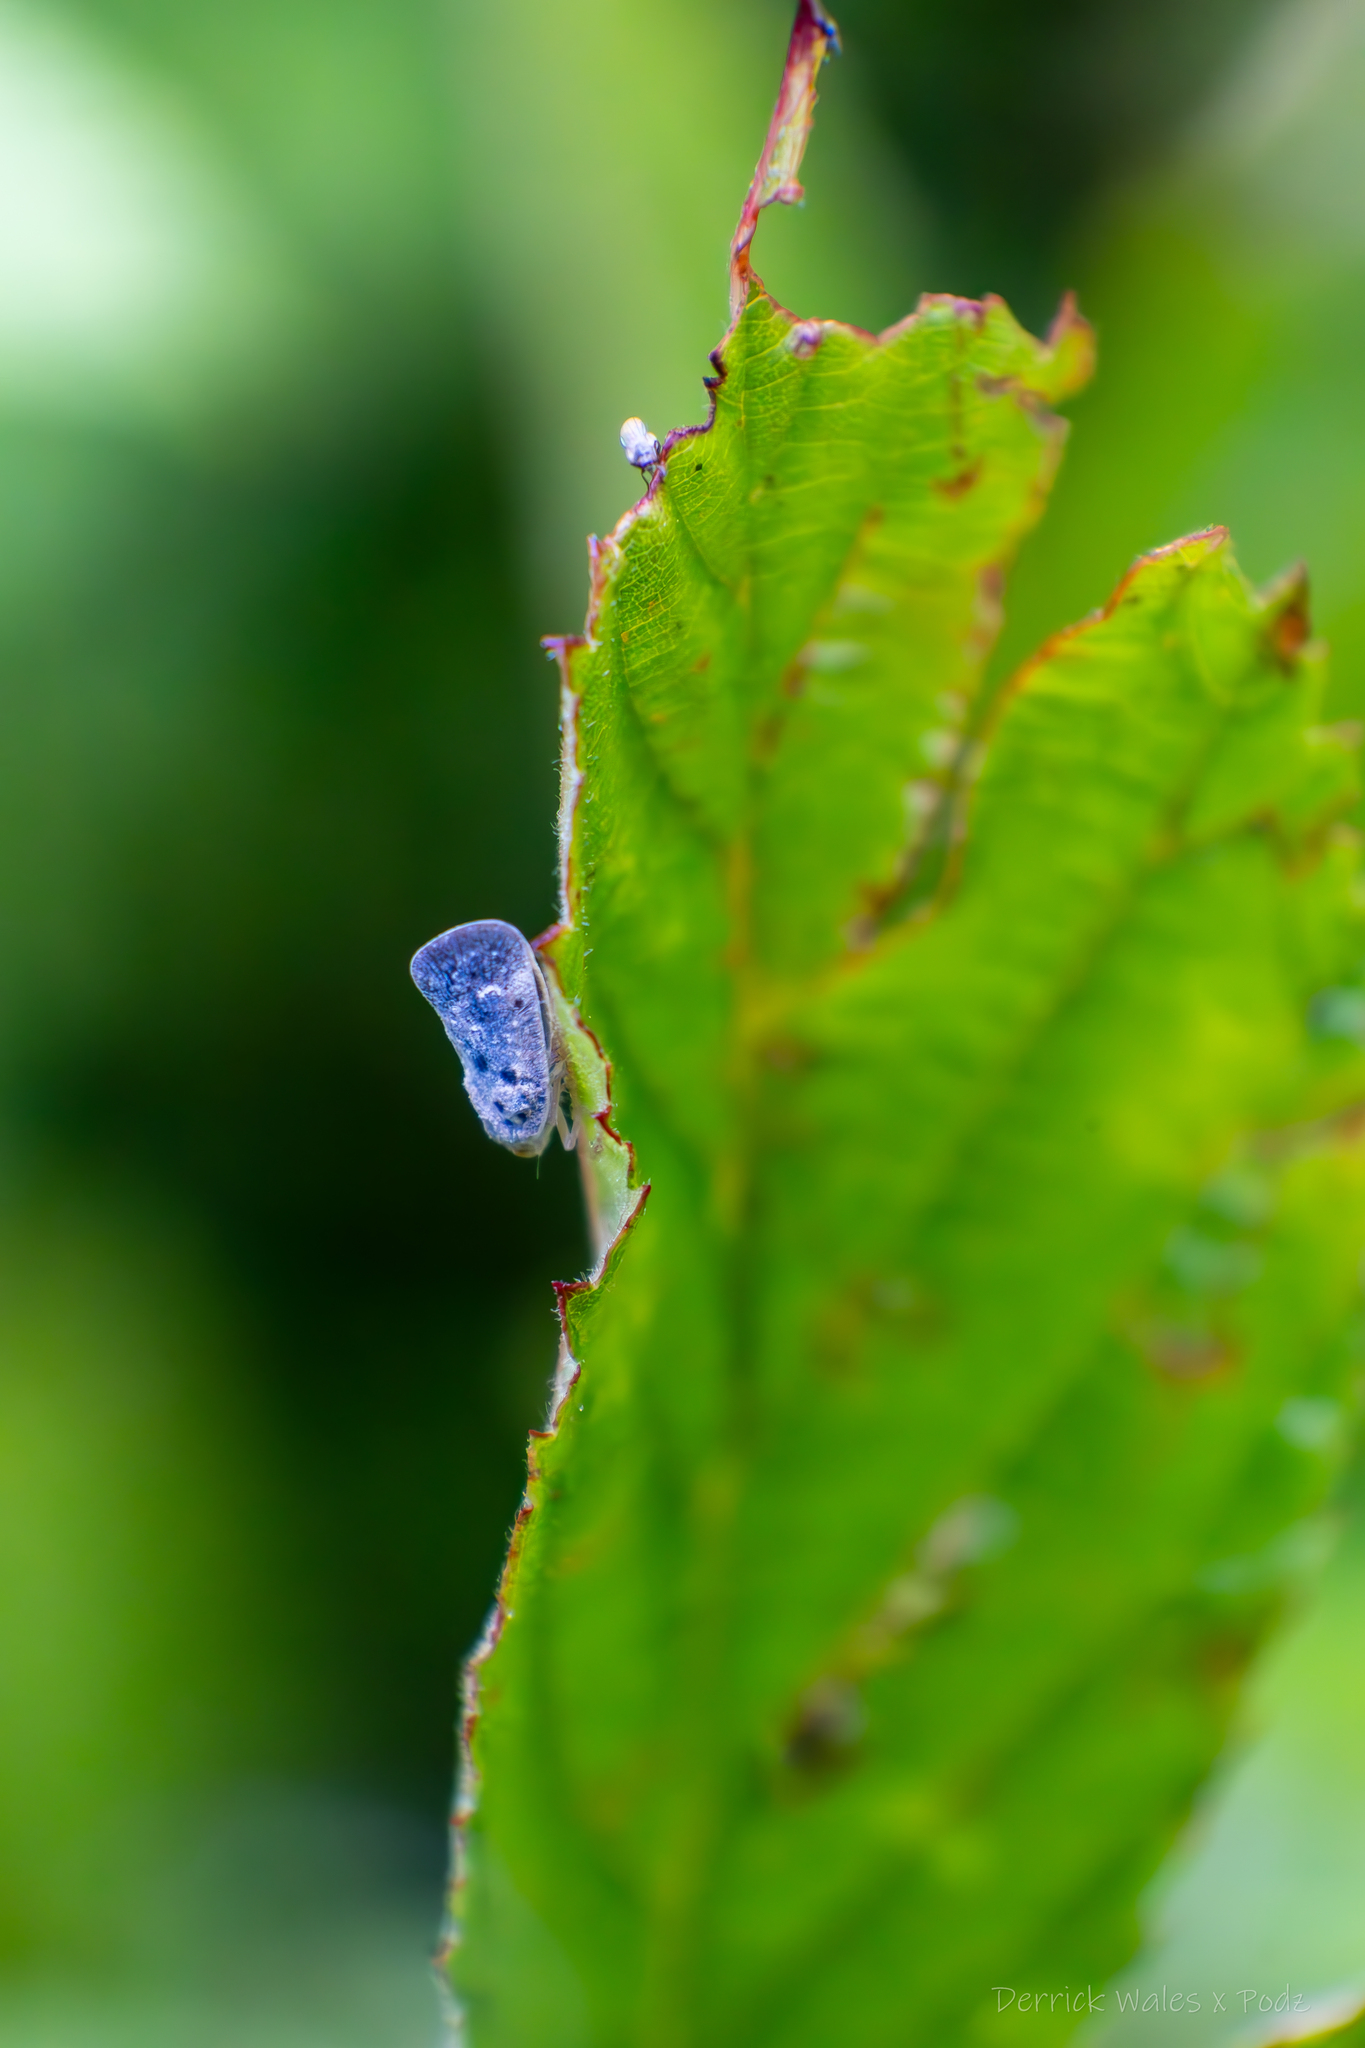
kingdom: Animalia
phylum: Arthropoda
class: Insecta
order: Hemiptera
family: Flatidae
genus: Metcalfa
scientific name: Metcalfa pruinosa
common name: Citrus flatid planthopper
